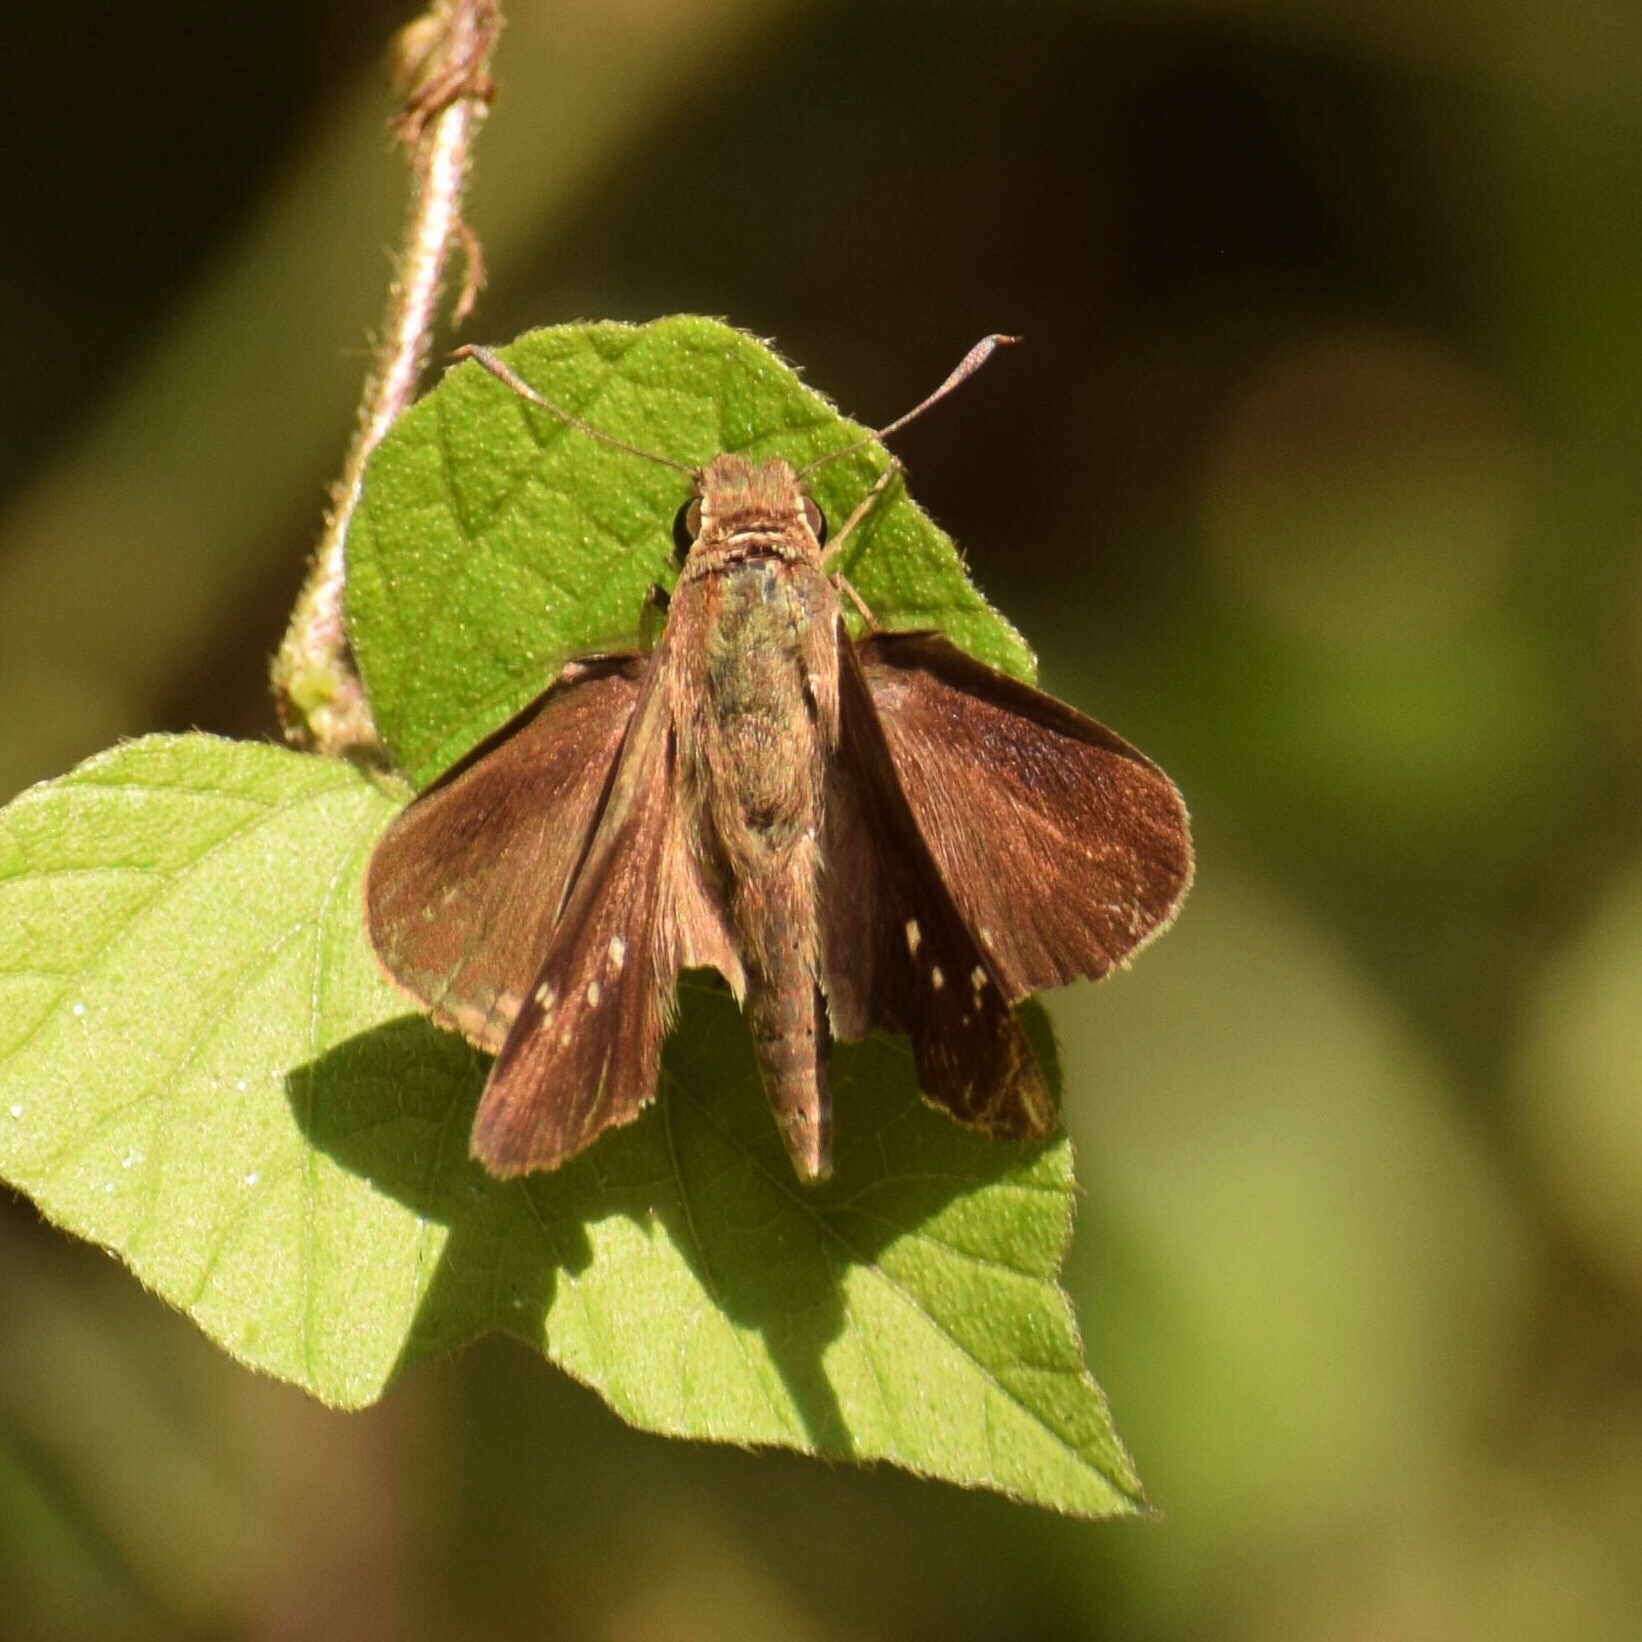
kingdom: Animalia
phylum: Arthropoda
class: Insecta
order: Lepidoptera
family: Hesperiidae
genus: Baoris
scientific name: Baoris fatuellus
